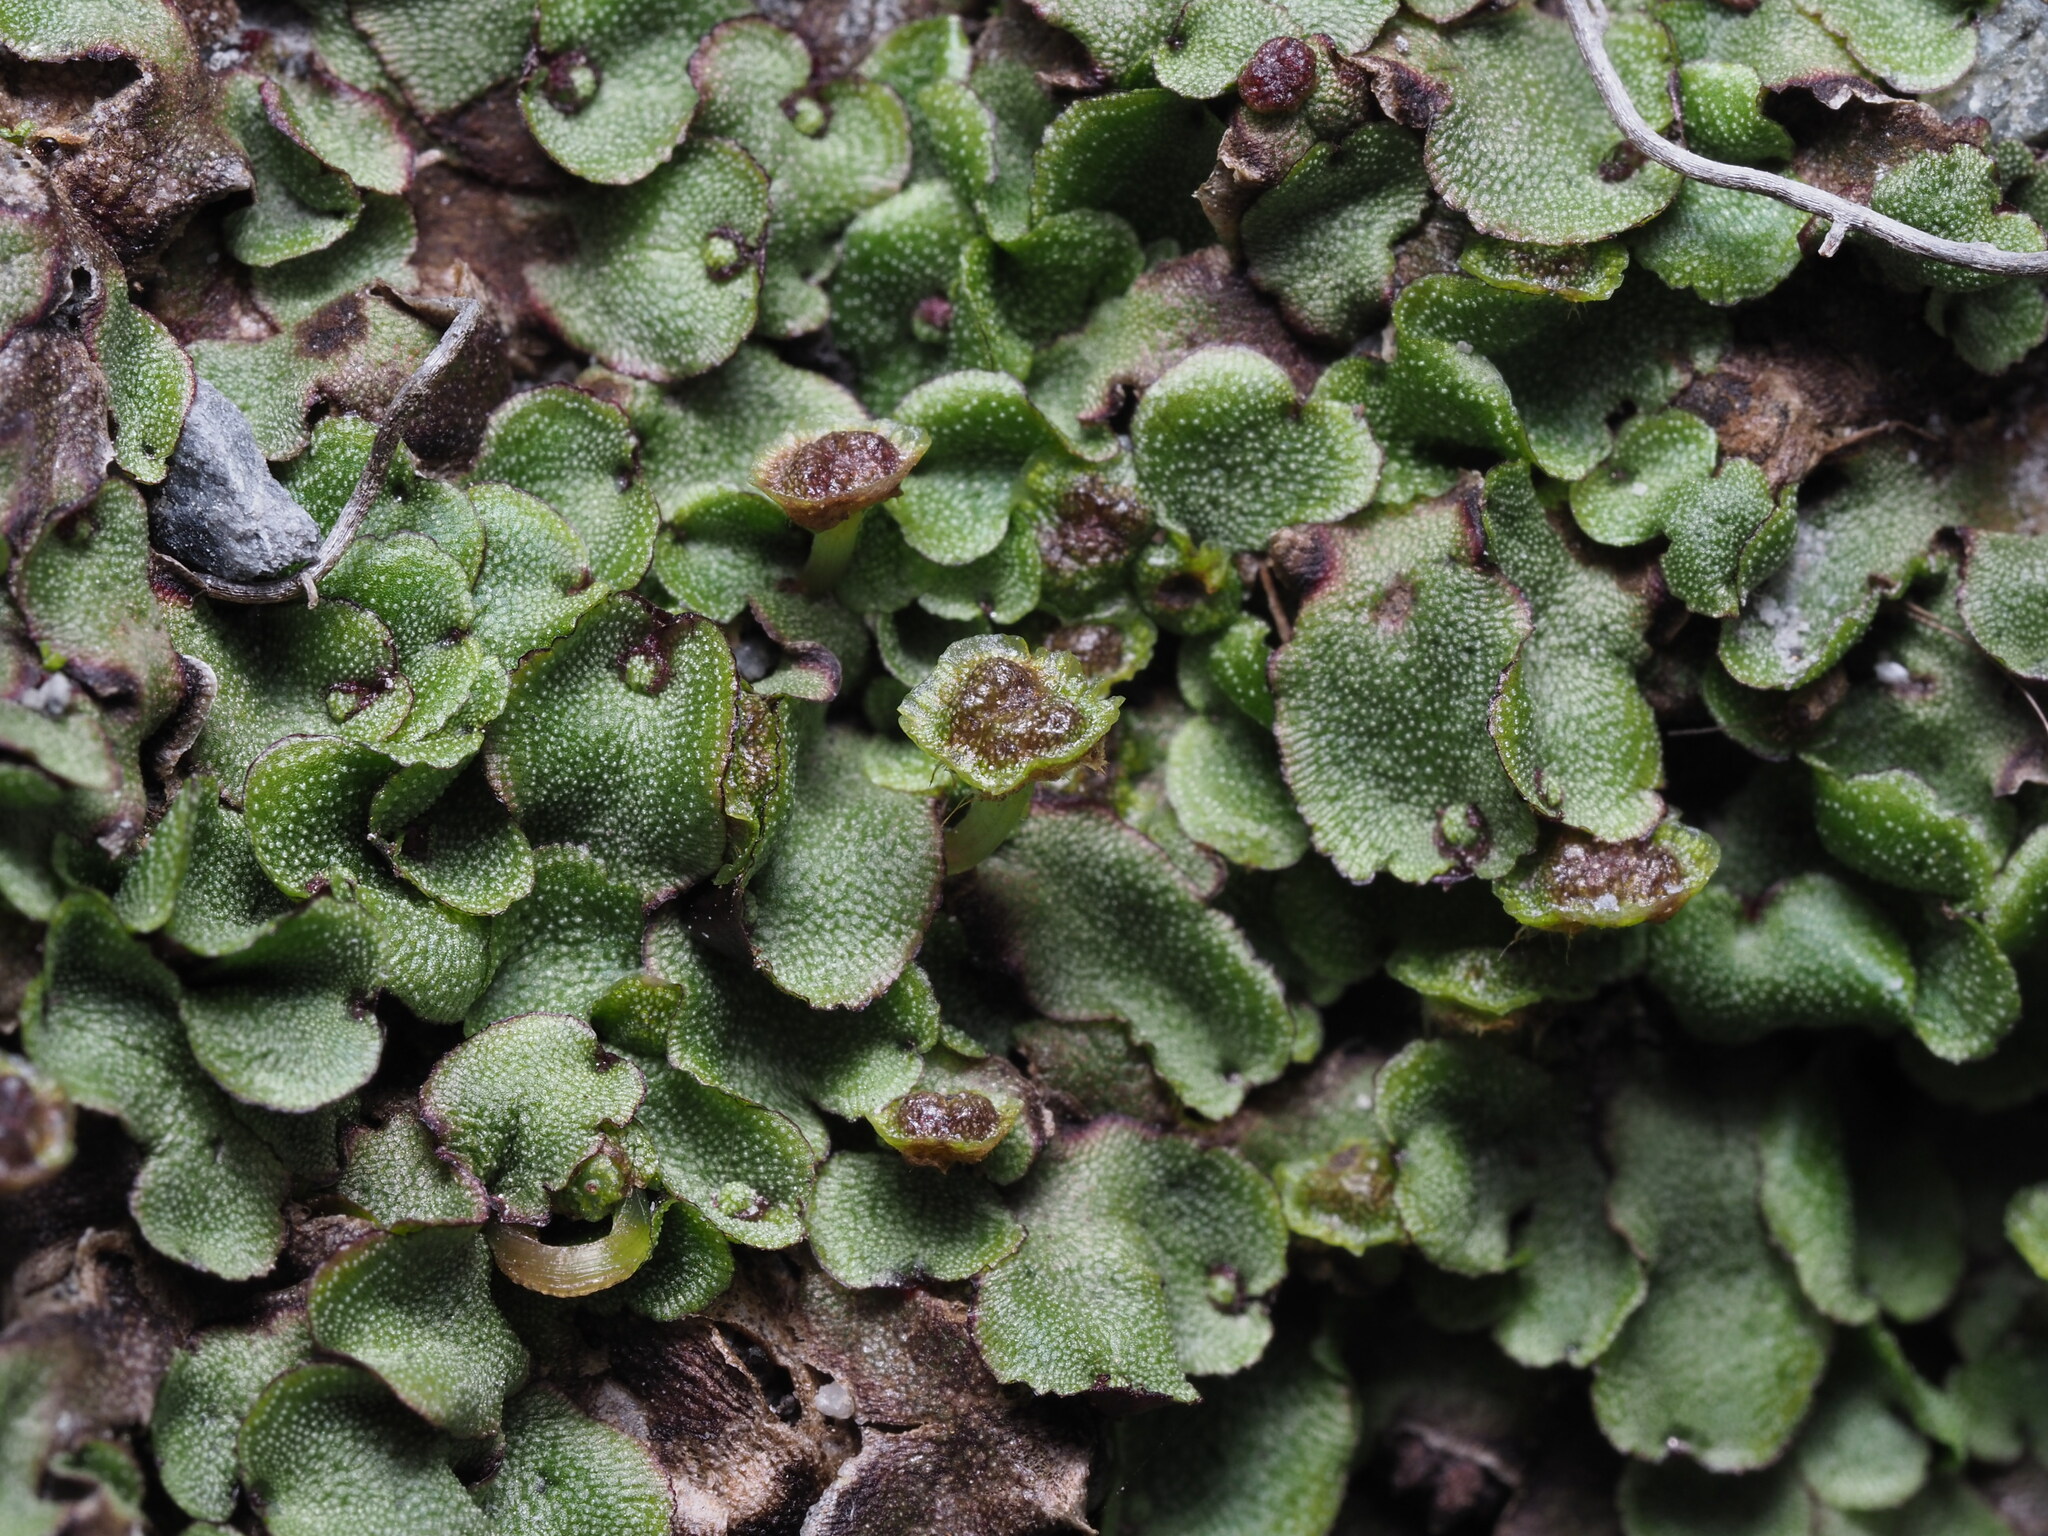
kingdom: Plantae
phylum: Marchantiophyta
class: Marchantiopsida
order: Marchantiales
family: Marchantiaceae
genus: Marchantia
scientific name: Marchantia quadrata
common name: Narrow mushroom-headed liverwort
